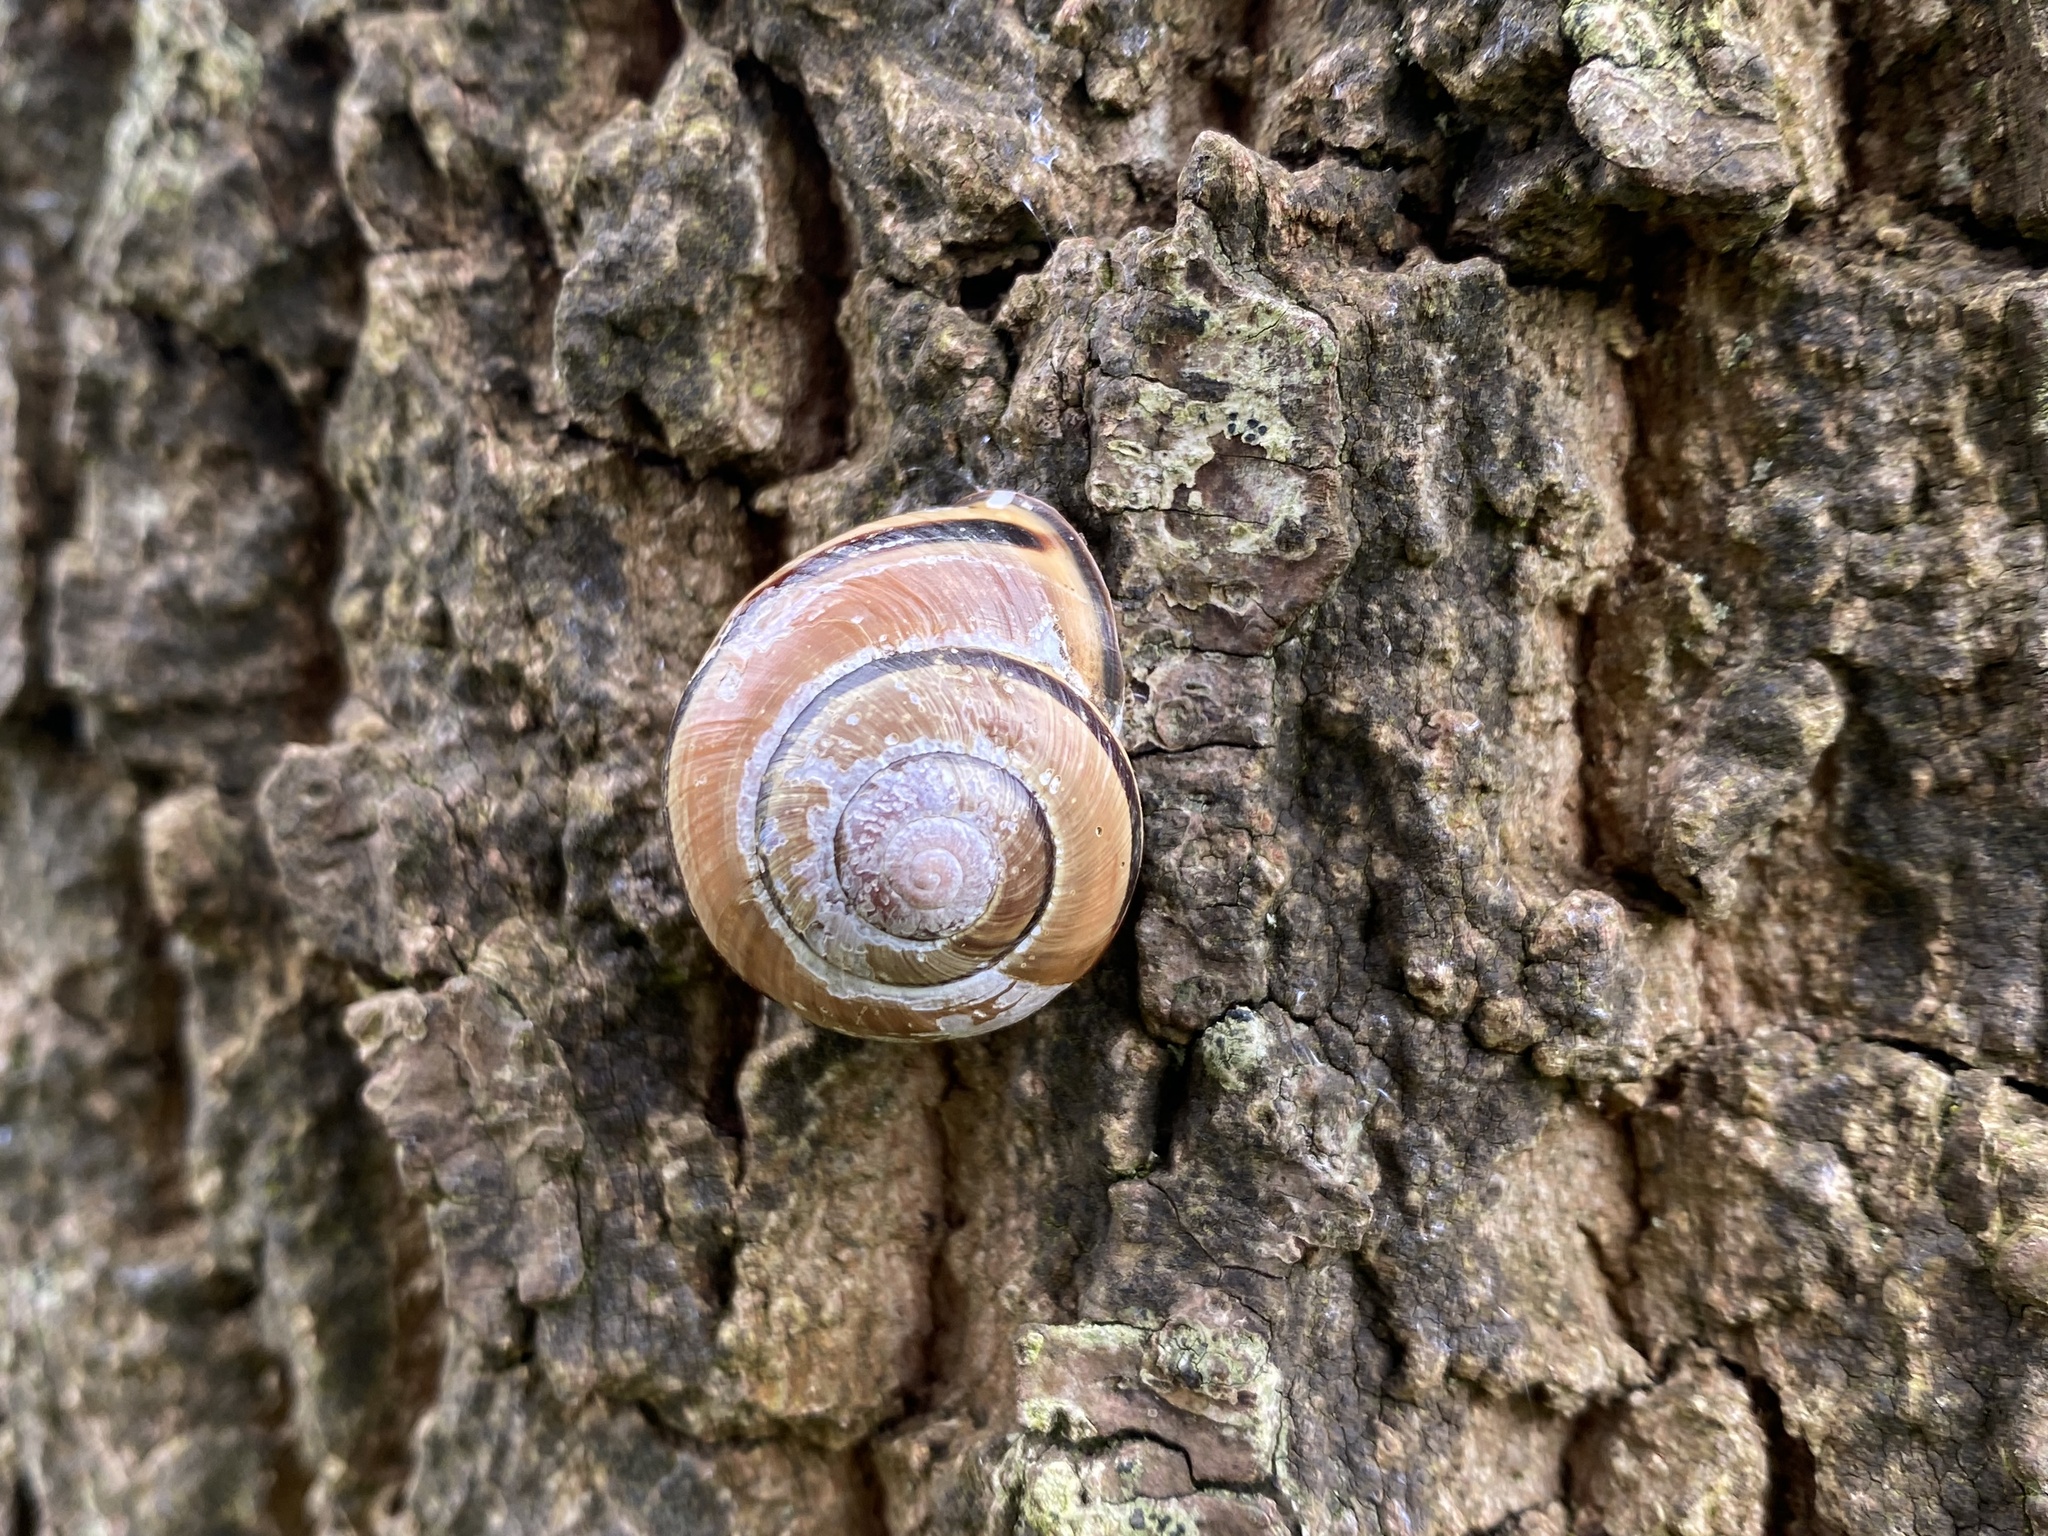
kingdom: Animalia
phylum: Mollusca
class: Gastropoda
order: Stylommatophora
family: Helicidae
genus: Cepaea
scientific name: Cepaea nemoralis
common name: Grovesnail
